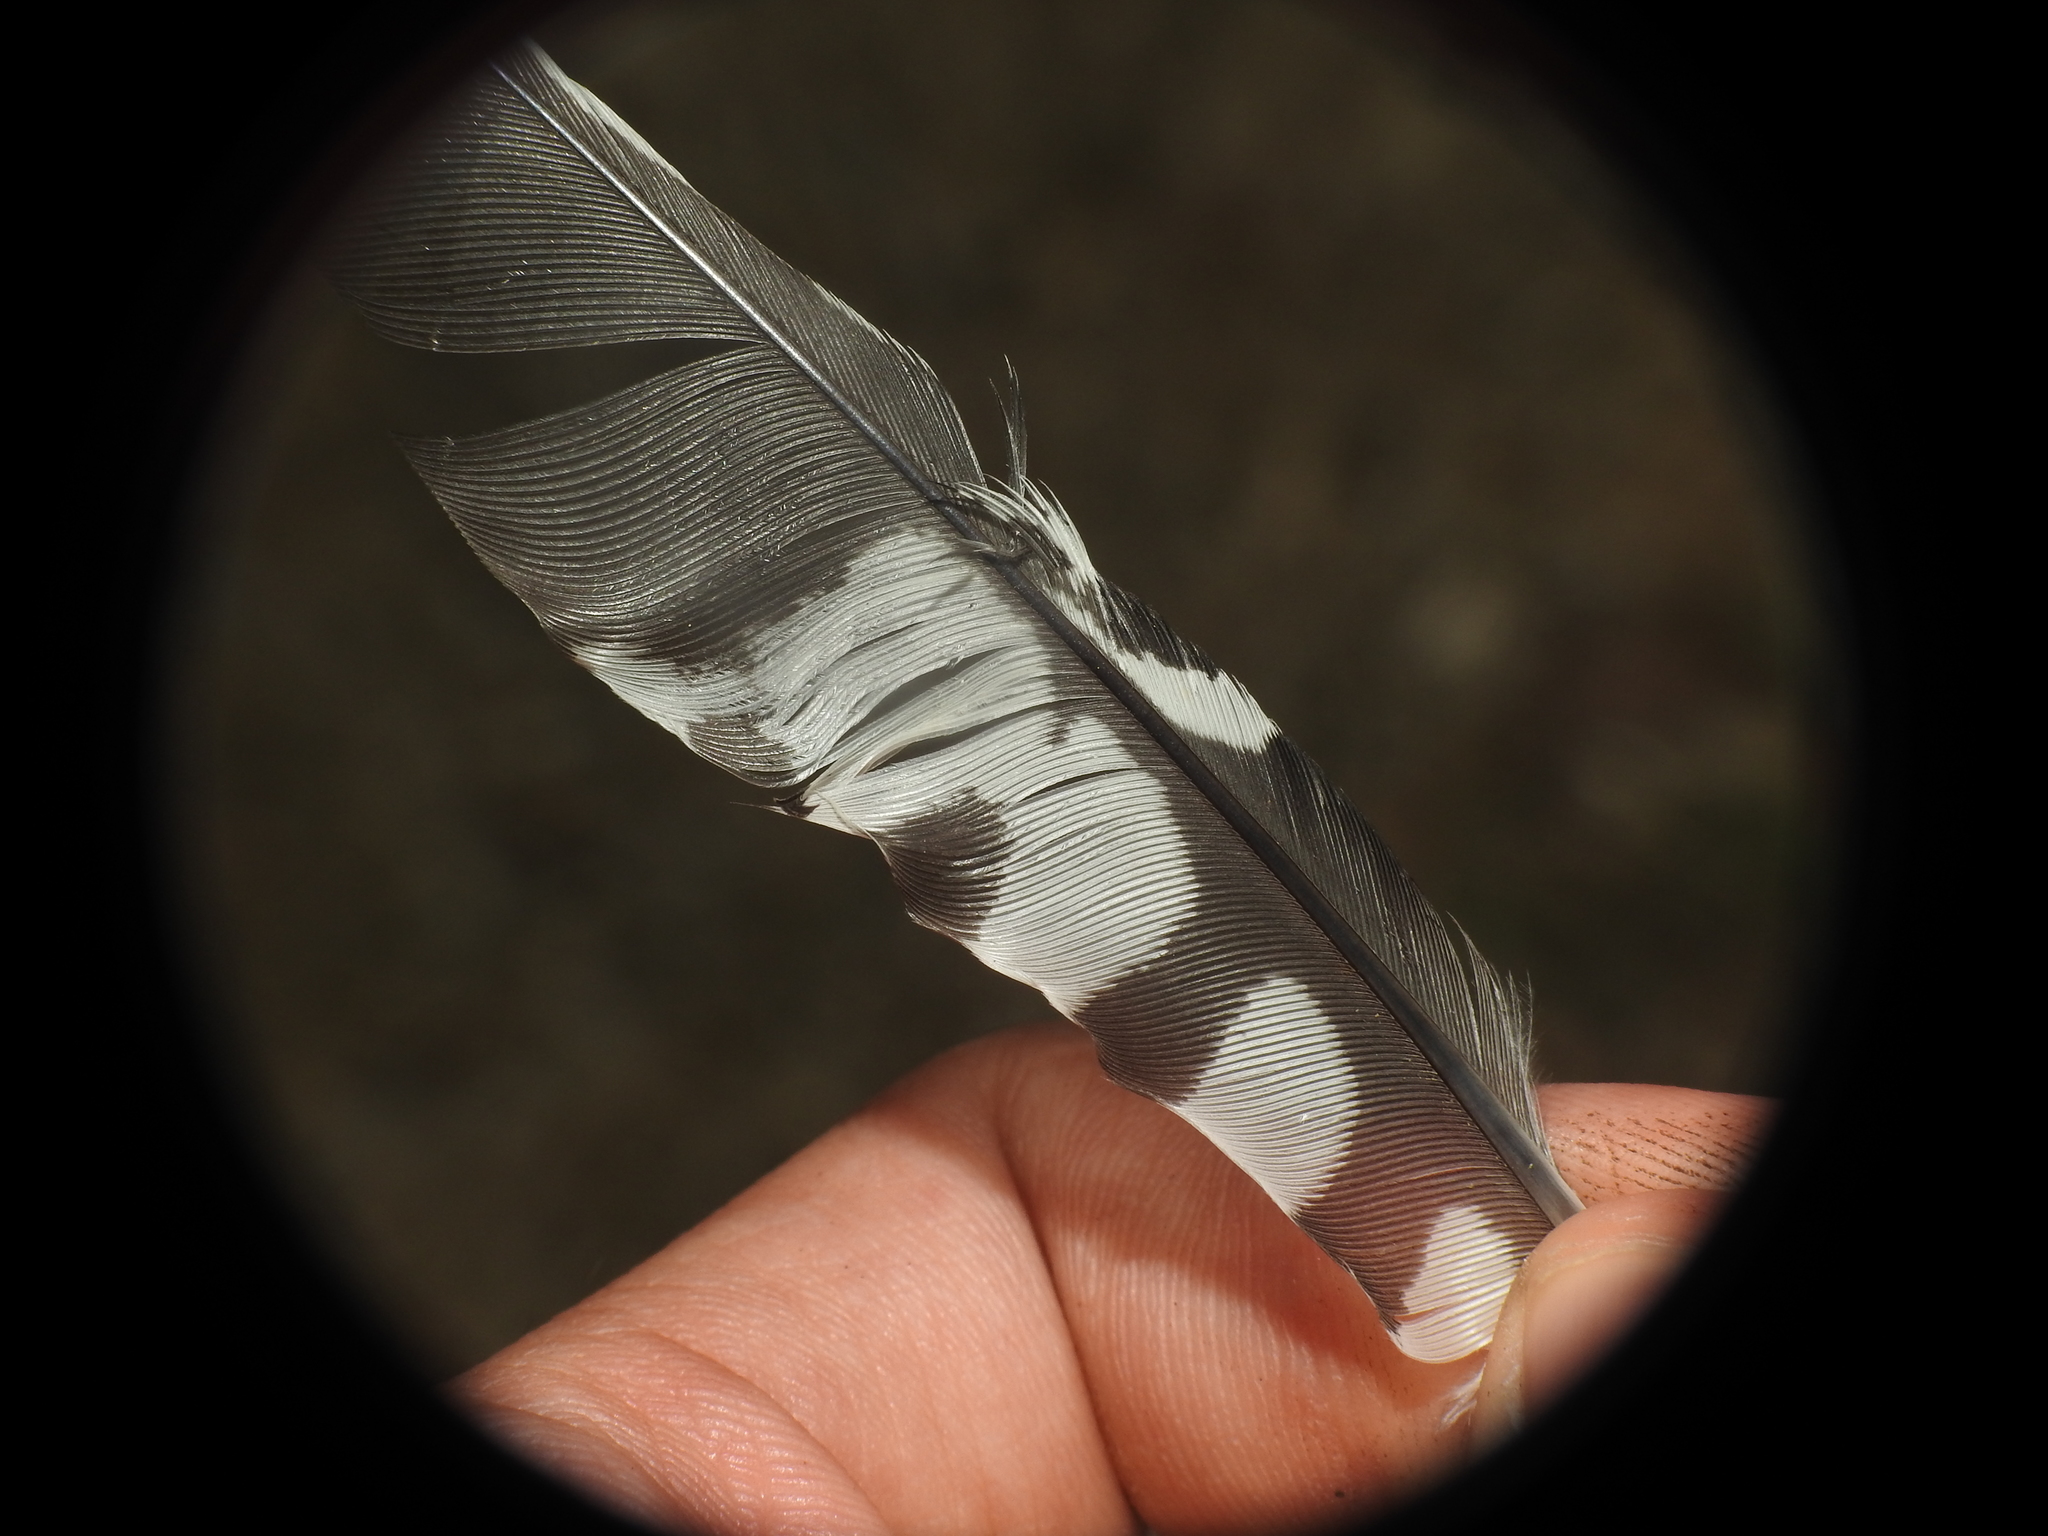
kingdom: Animalia
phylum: Chordata
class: Aves
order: Piciformes
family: Picidae
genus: Melanerpes
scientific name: Melanerpes carolinus
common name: Red-bellied woodpecker
